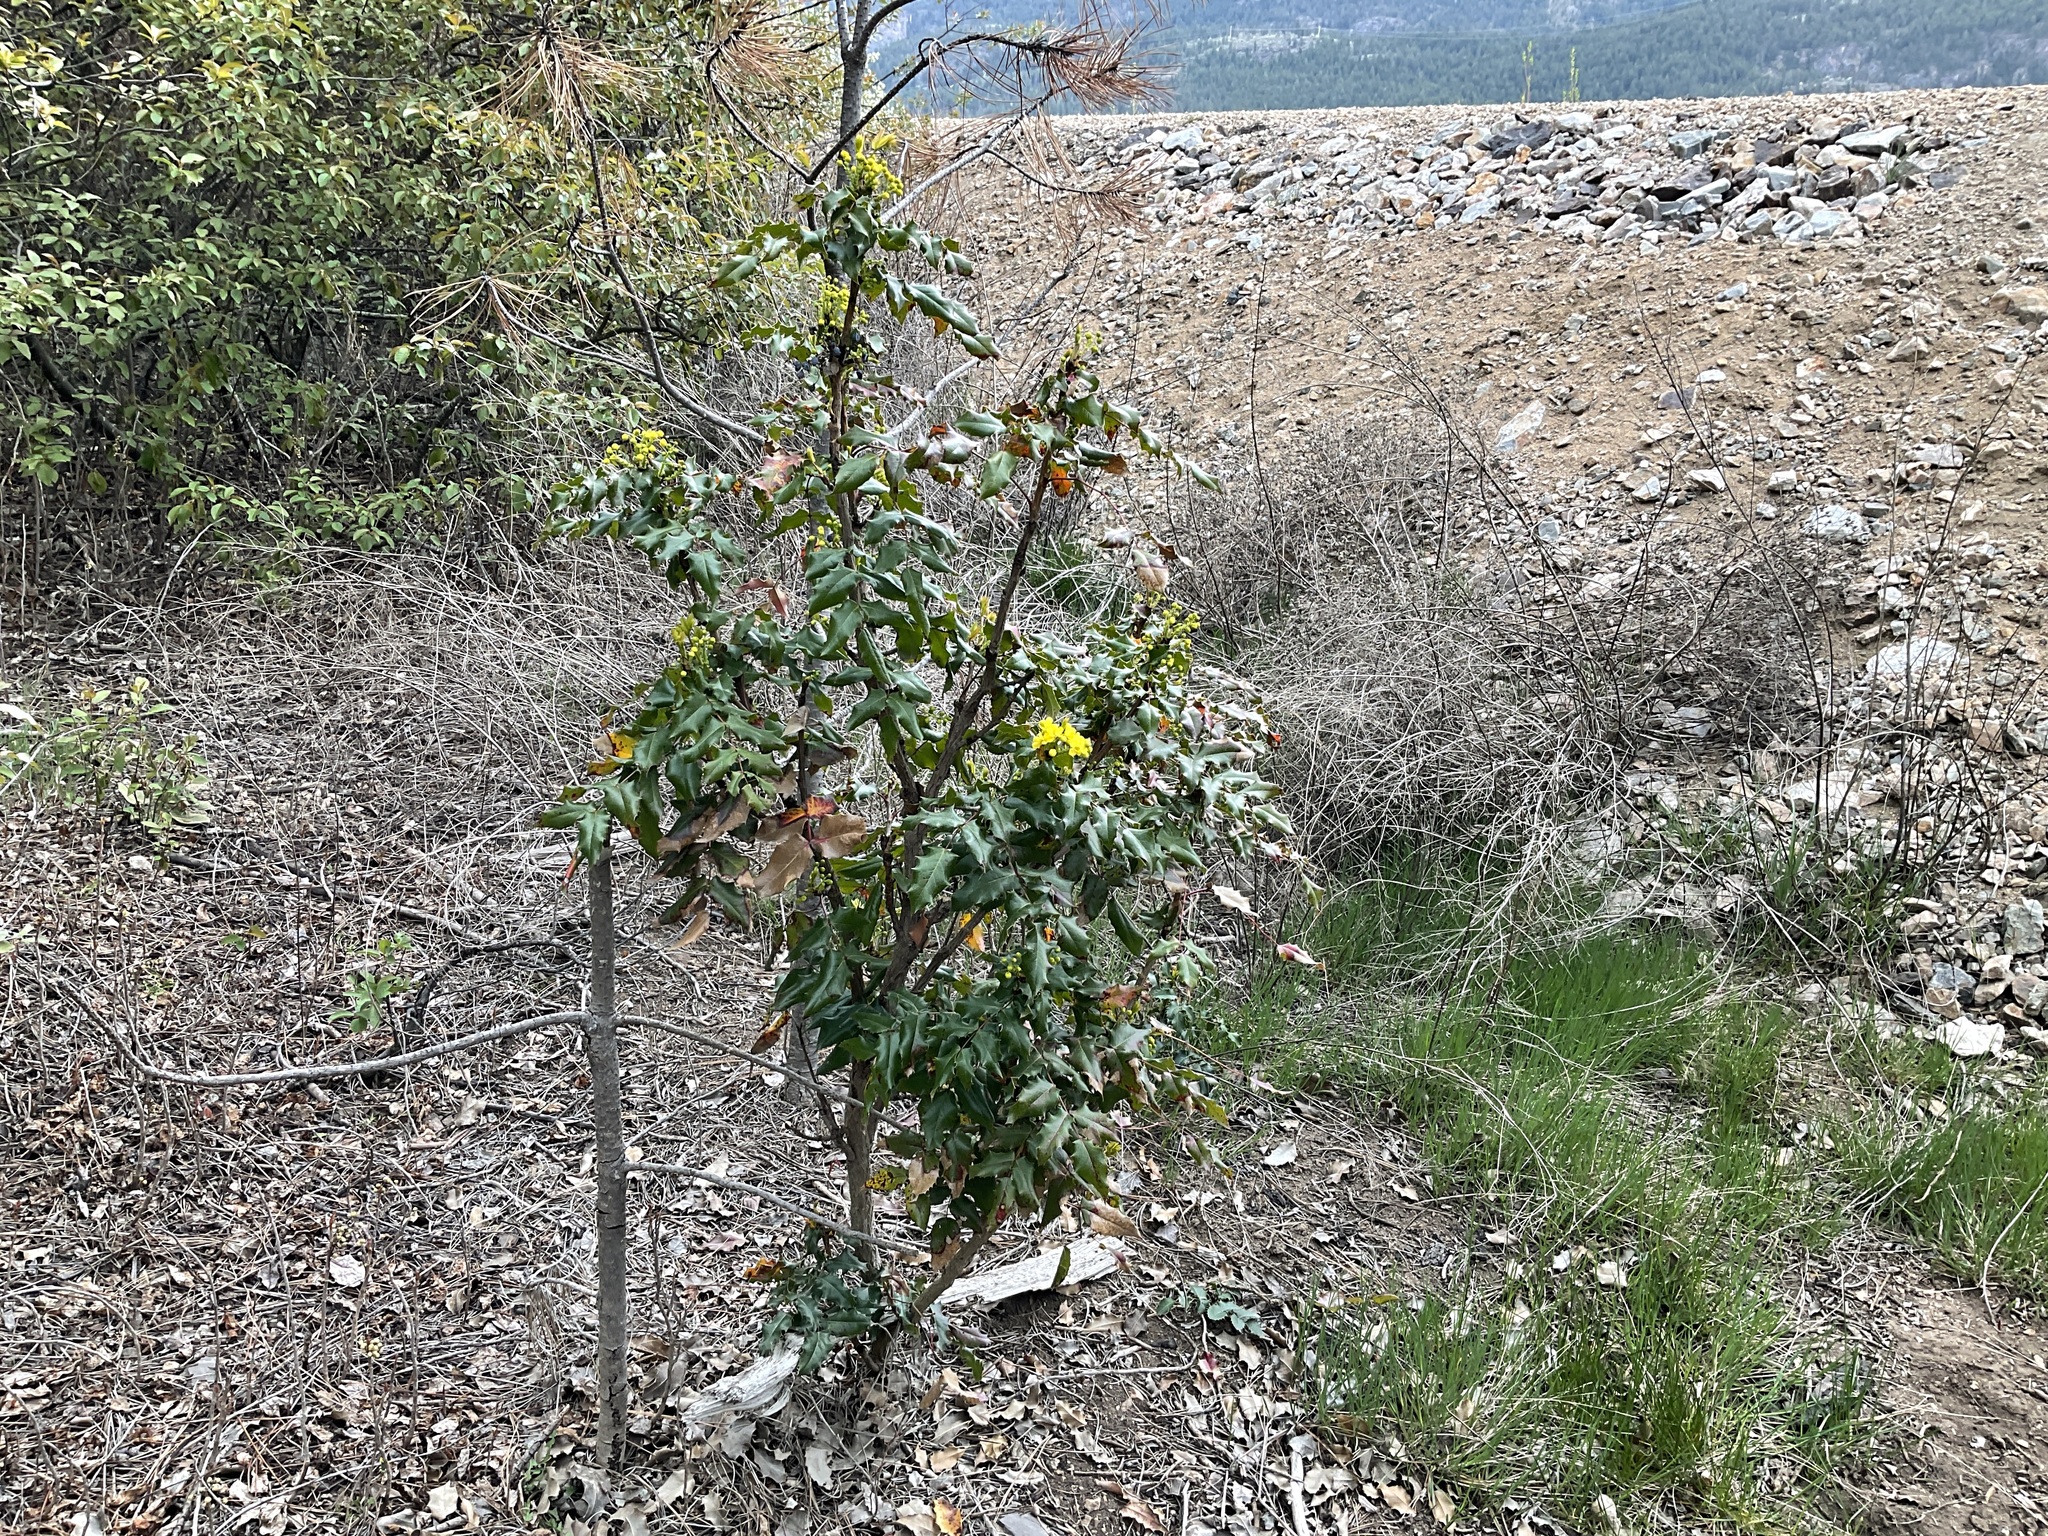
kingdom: Plantae
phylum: Tracheophyta
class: Magnoliopsida
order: Ranunculales
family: Berberidaceae
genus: Mahonia
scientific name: Mahonia aquifolium
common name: Oregon-grape
